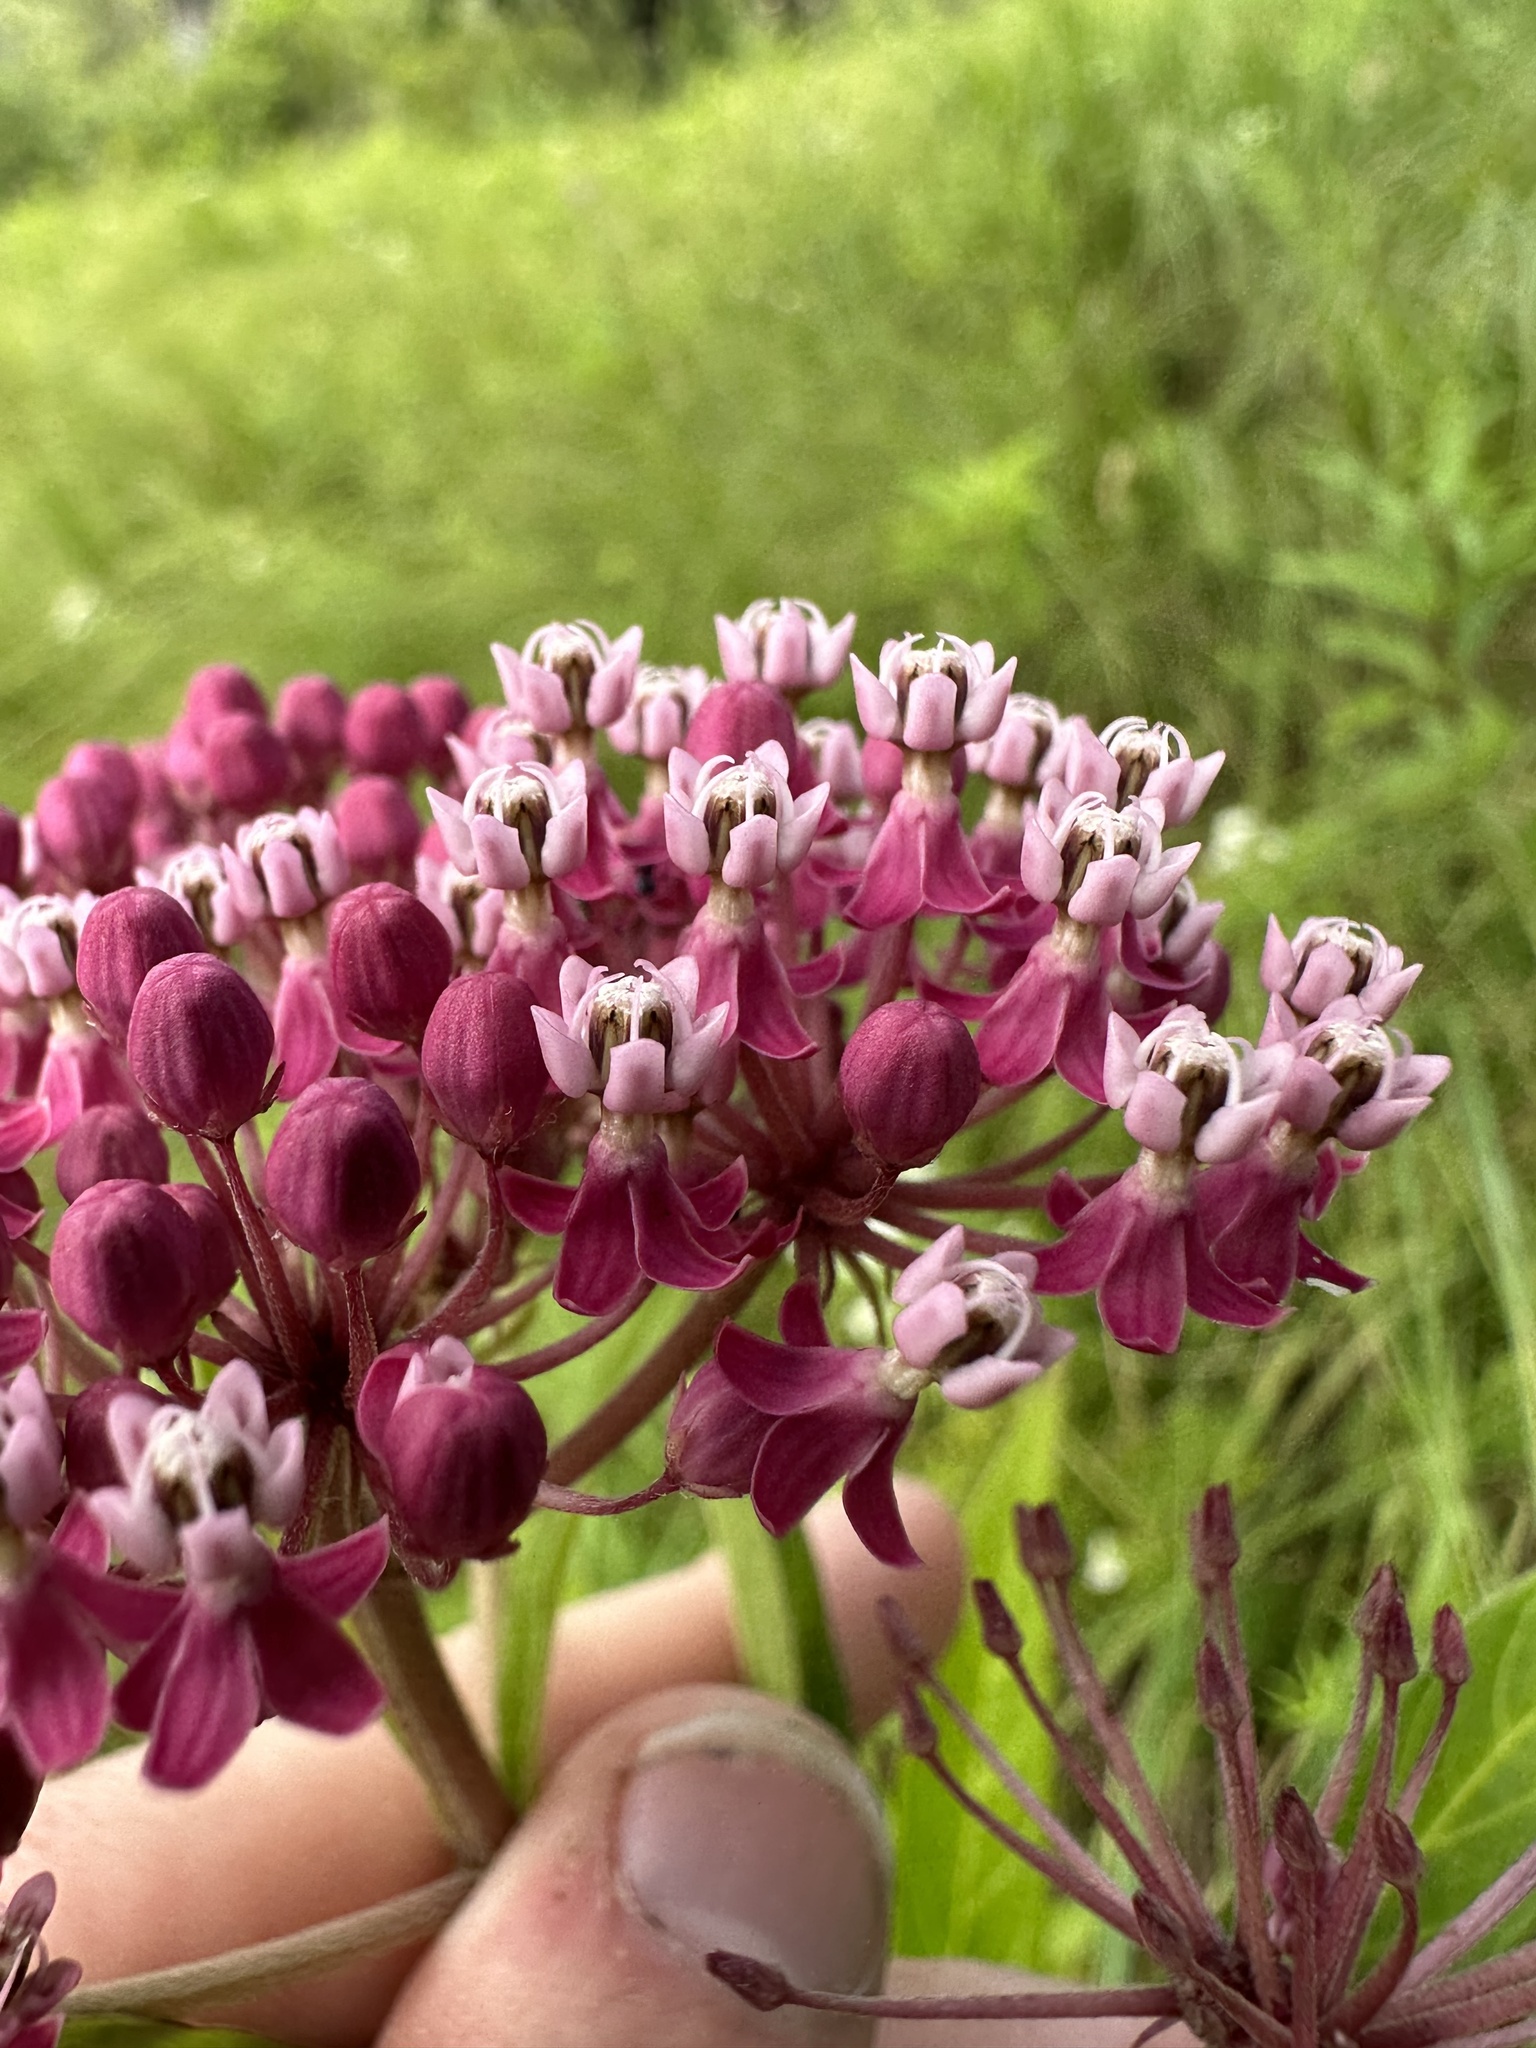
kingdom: Plantae
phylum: Tracheophyta
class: Magnoliopsida
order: Gentianales
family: Apocynaceae
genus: Asclepias
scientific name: Asclepias incarnata
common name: Swamp milkweed
